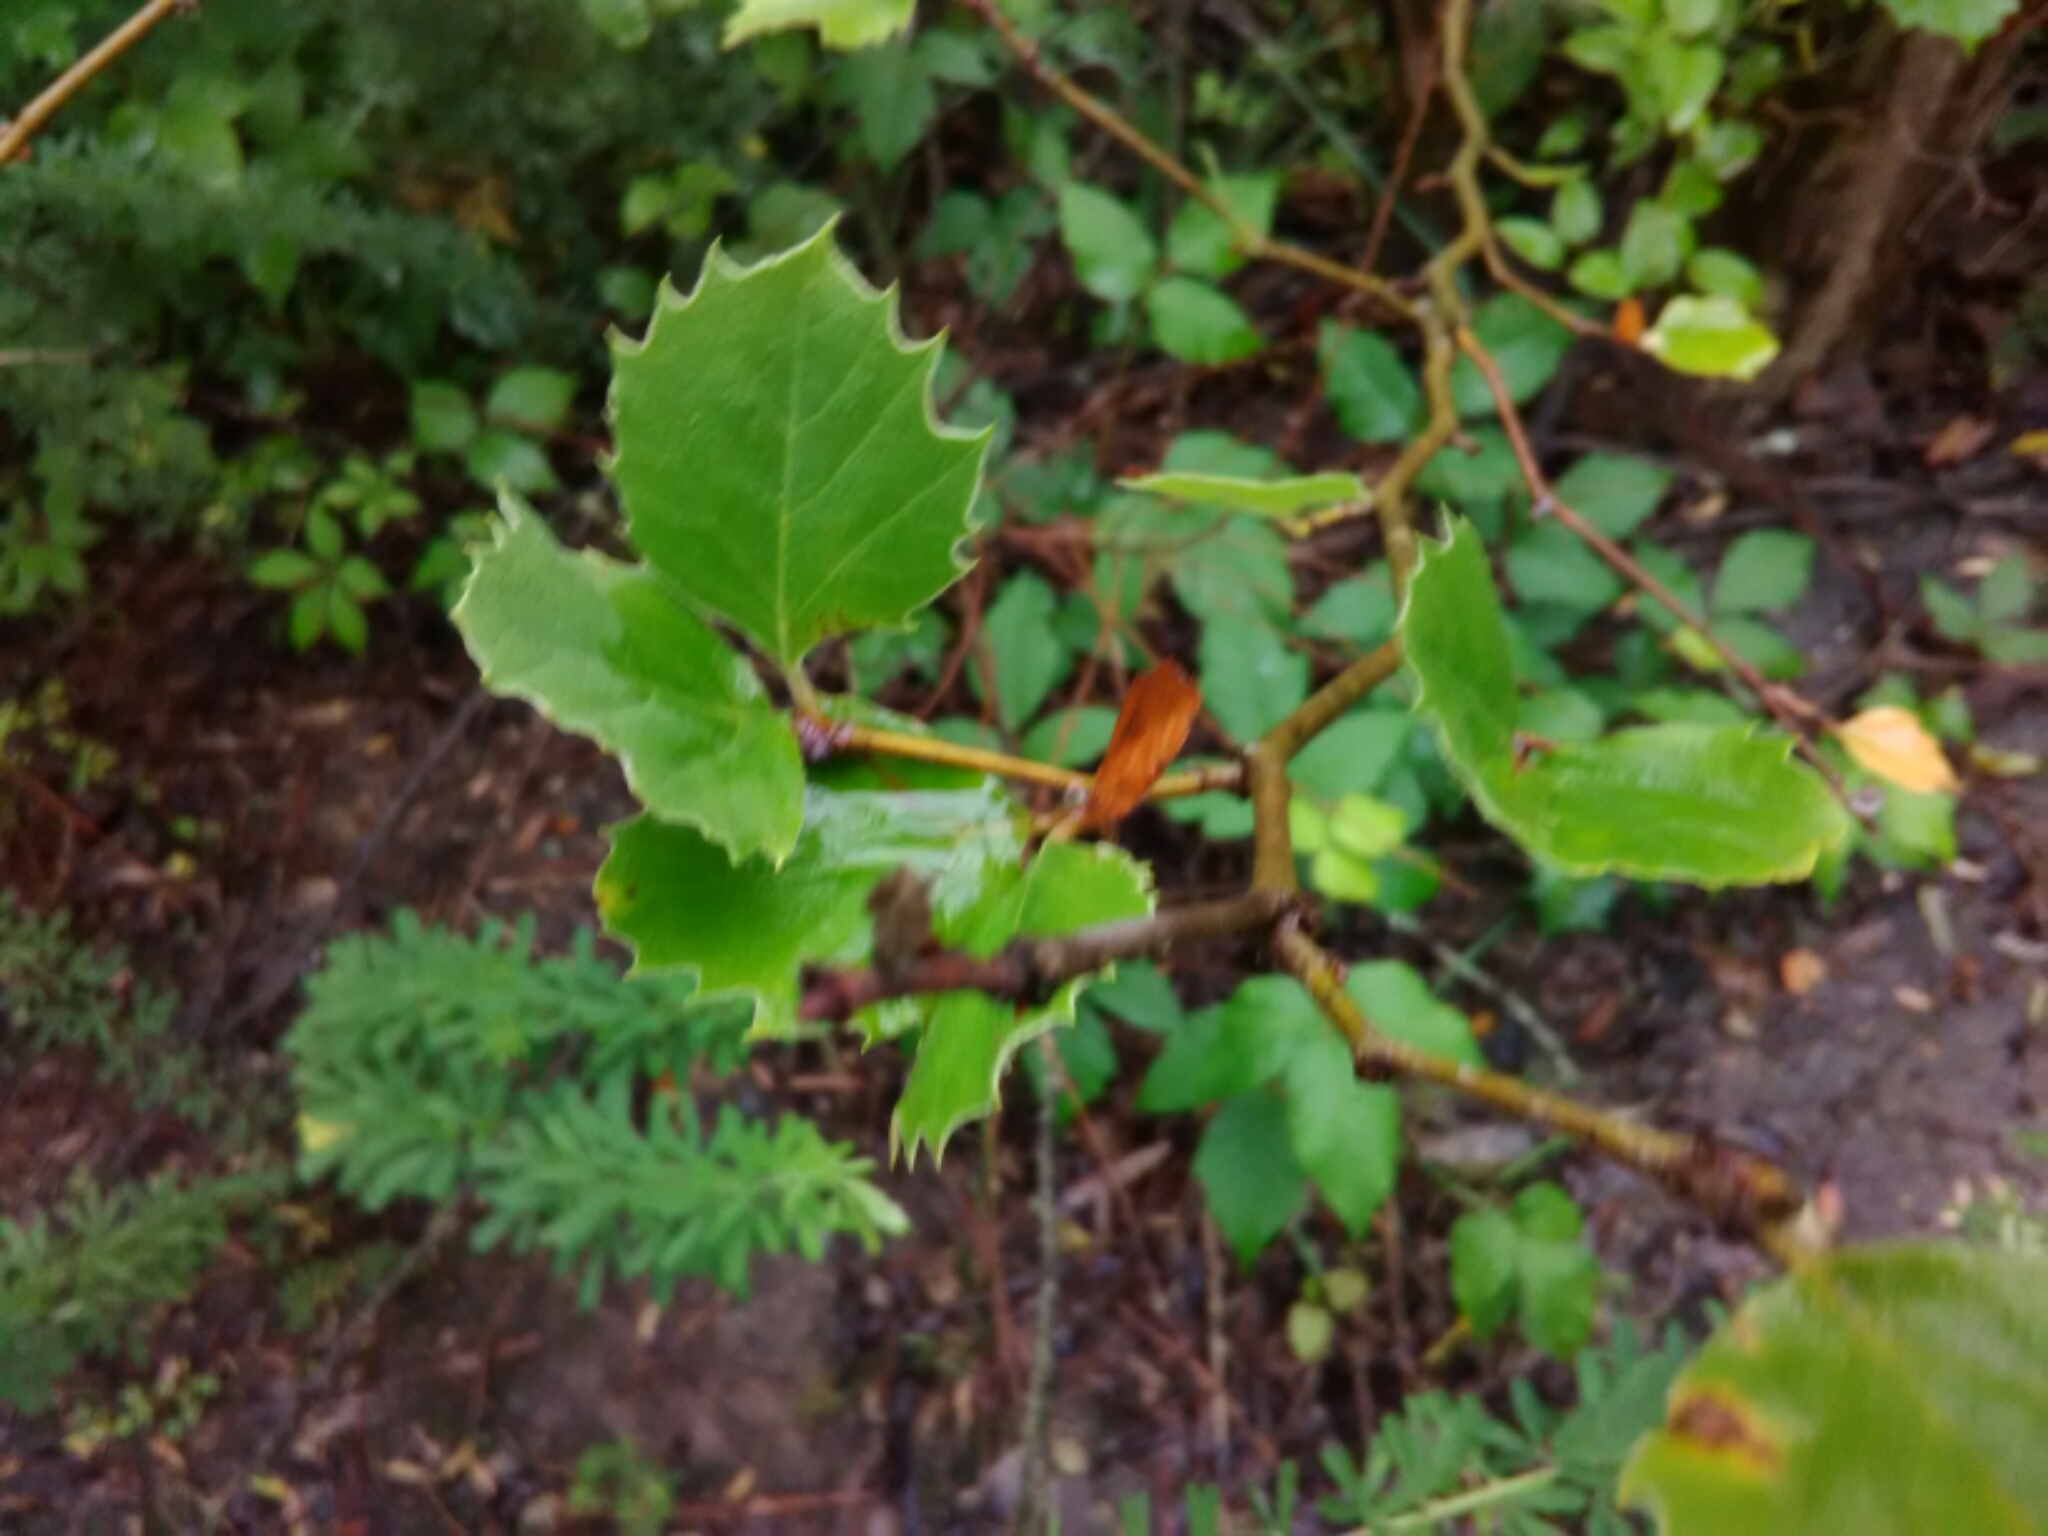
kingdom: Plantae
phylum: Tracheophyta
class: Magnoliopsida
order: Proteales
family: Platanaceae
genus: Platanus
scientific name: Platanus occidentalis
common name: American sycamore
